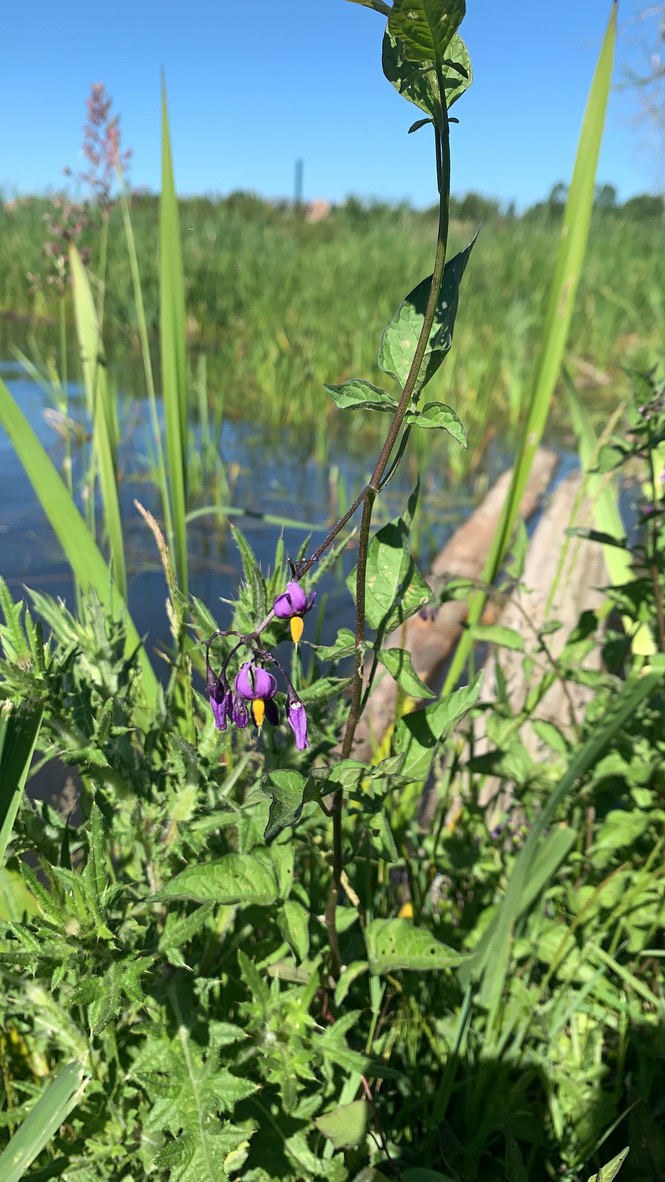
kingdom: Plantae
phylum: Tracheophyta
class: Magnoliopsida
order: Solanales
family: Solanaceae
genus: Solanum
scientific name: Solanum dulcamara
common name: Climbing nightshade
